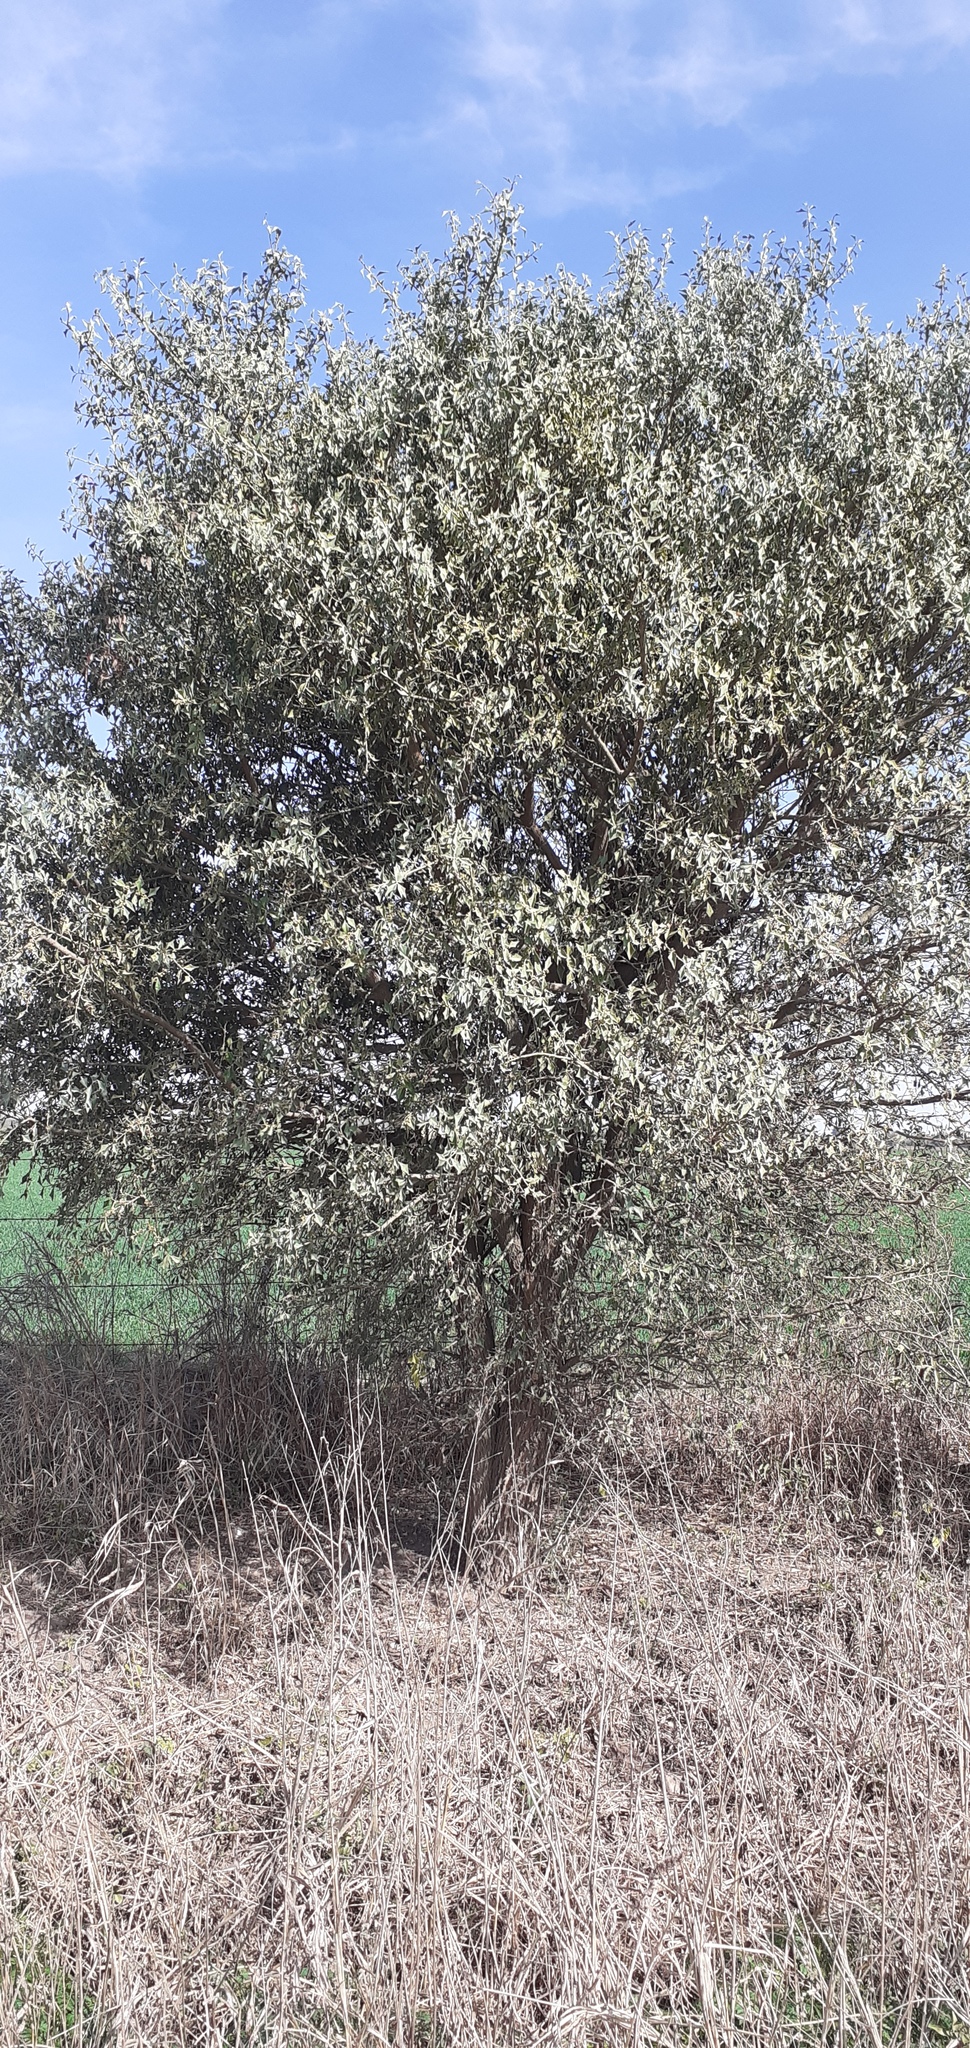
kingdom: Plantae
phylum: Tracheophyta
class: Magnoliopsida
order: Santalales
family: Cervantesiaceae
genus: Jodina
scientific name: Jodina rhombifolia
